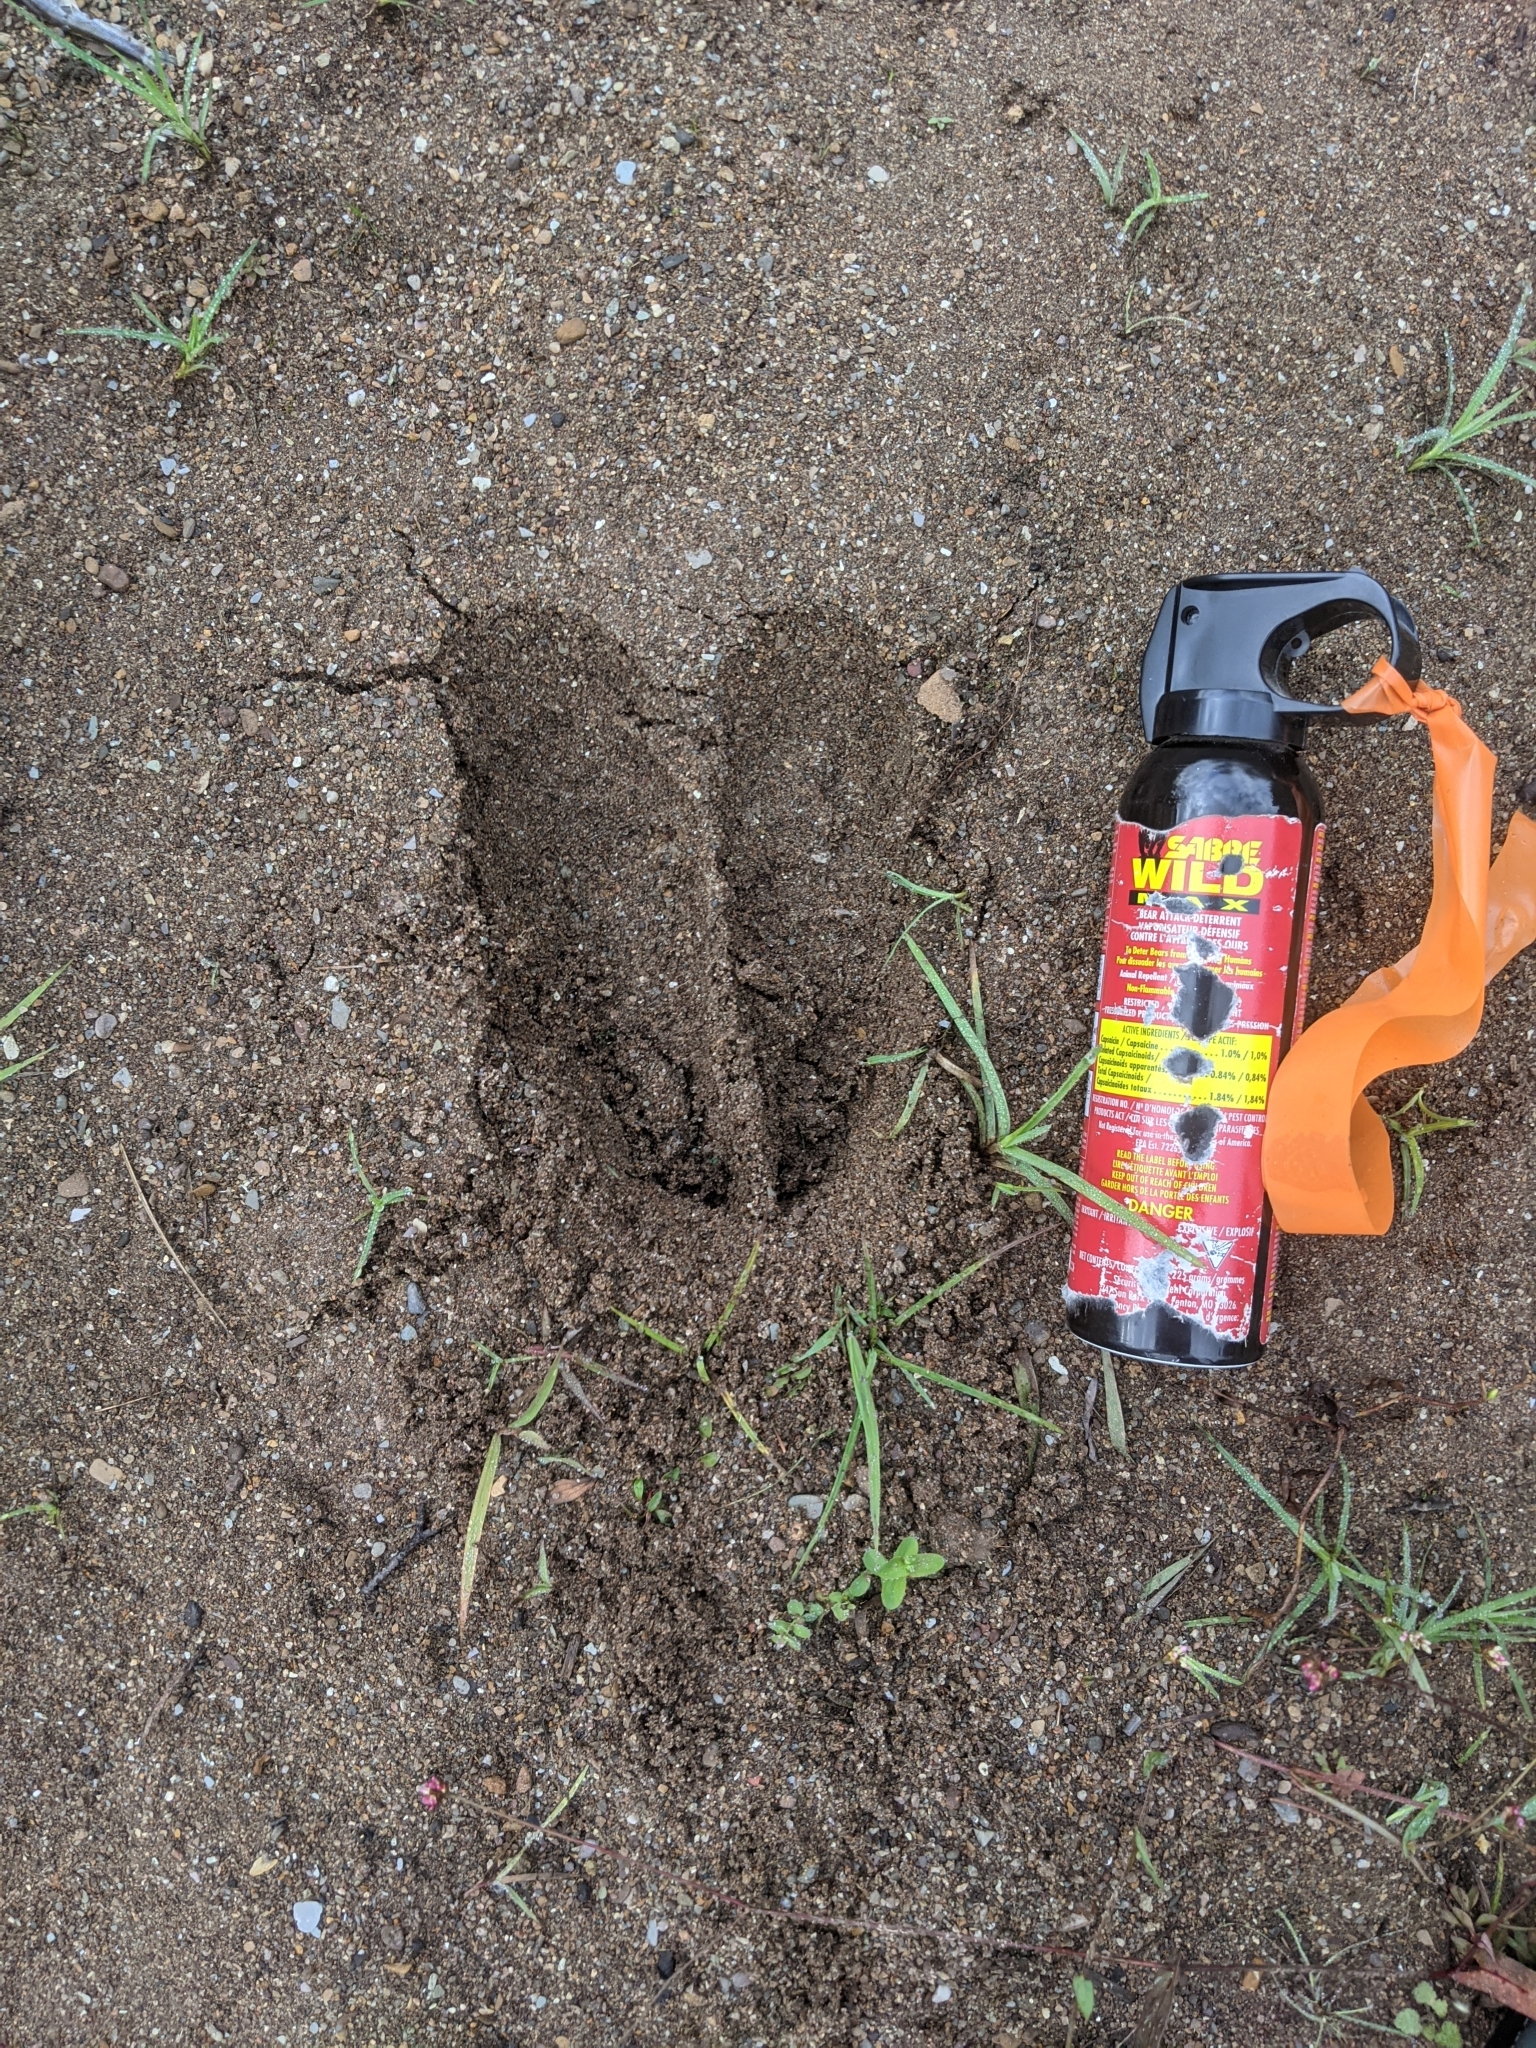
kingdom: Animalia
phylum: Chordata
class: Mammalia
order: Artiodactyla
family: Cervidae
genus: Alces
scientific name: Alces alces
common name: Moose
